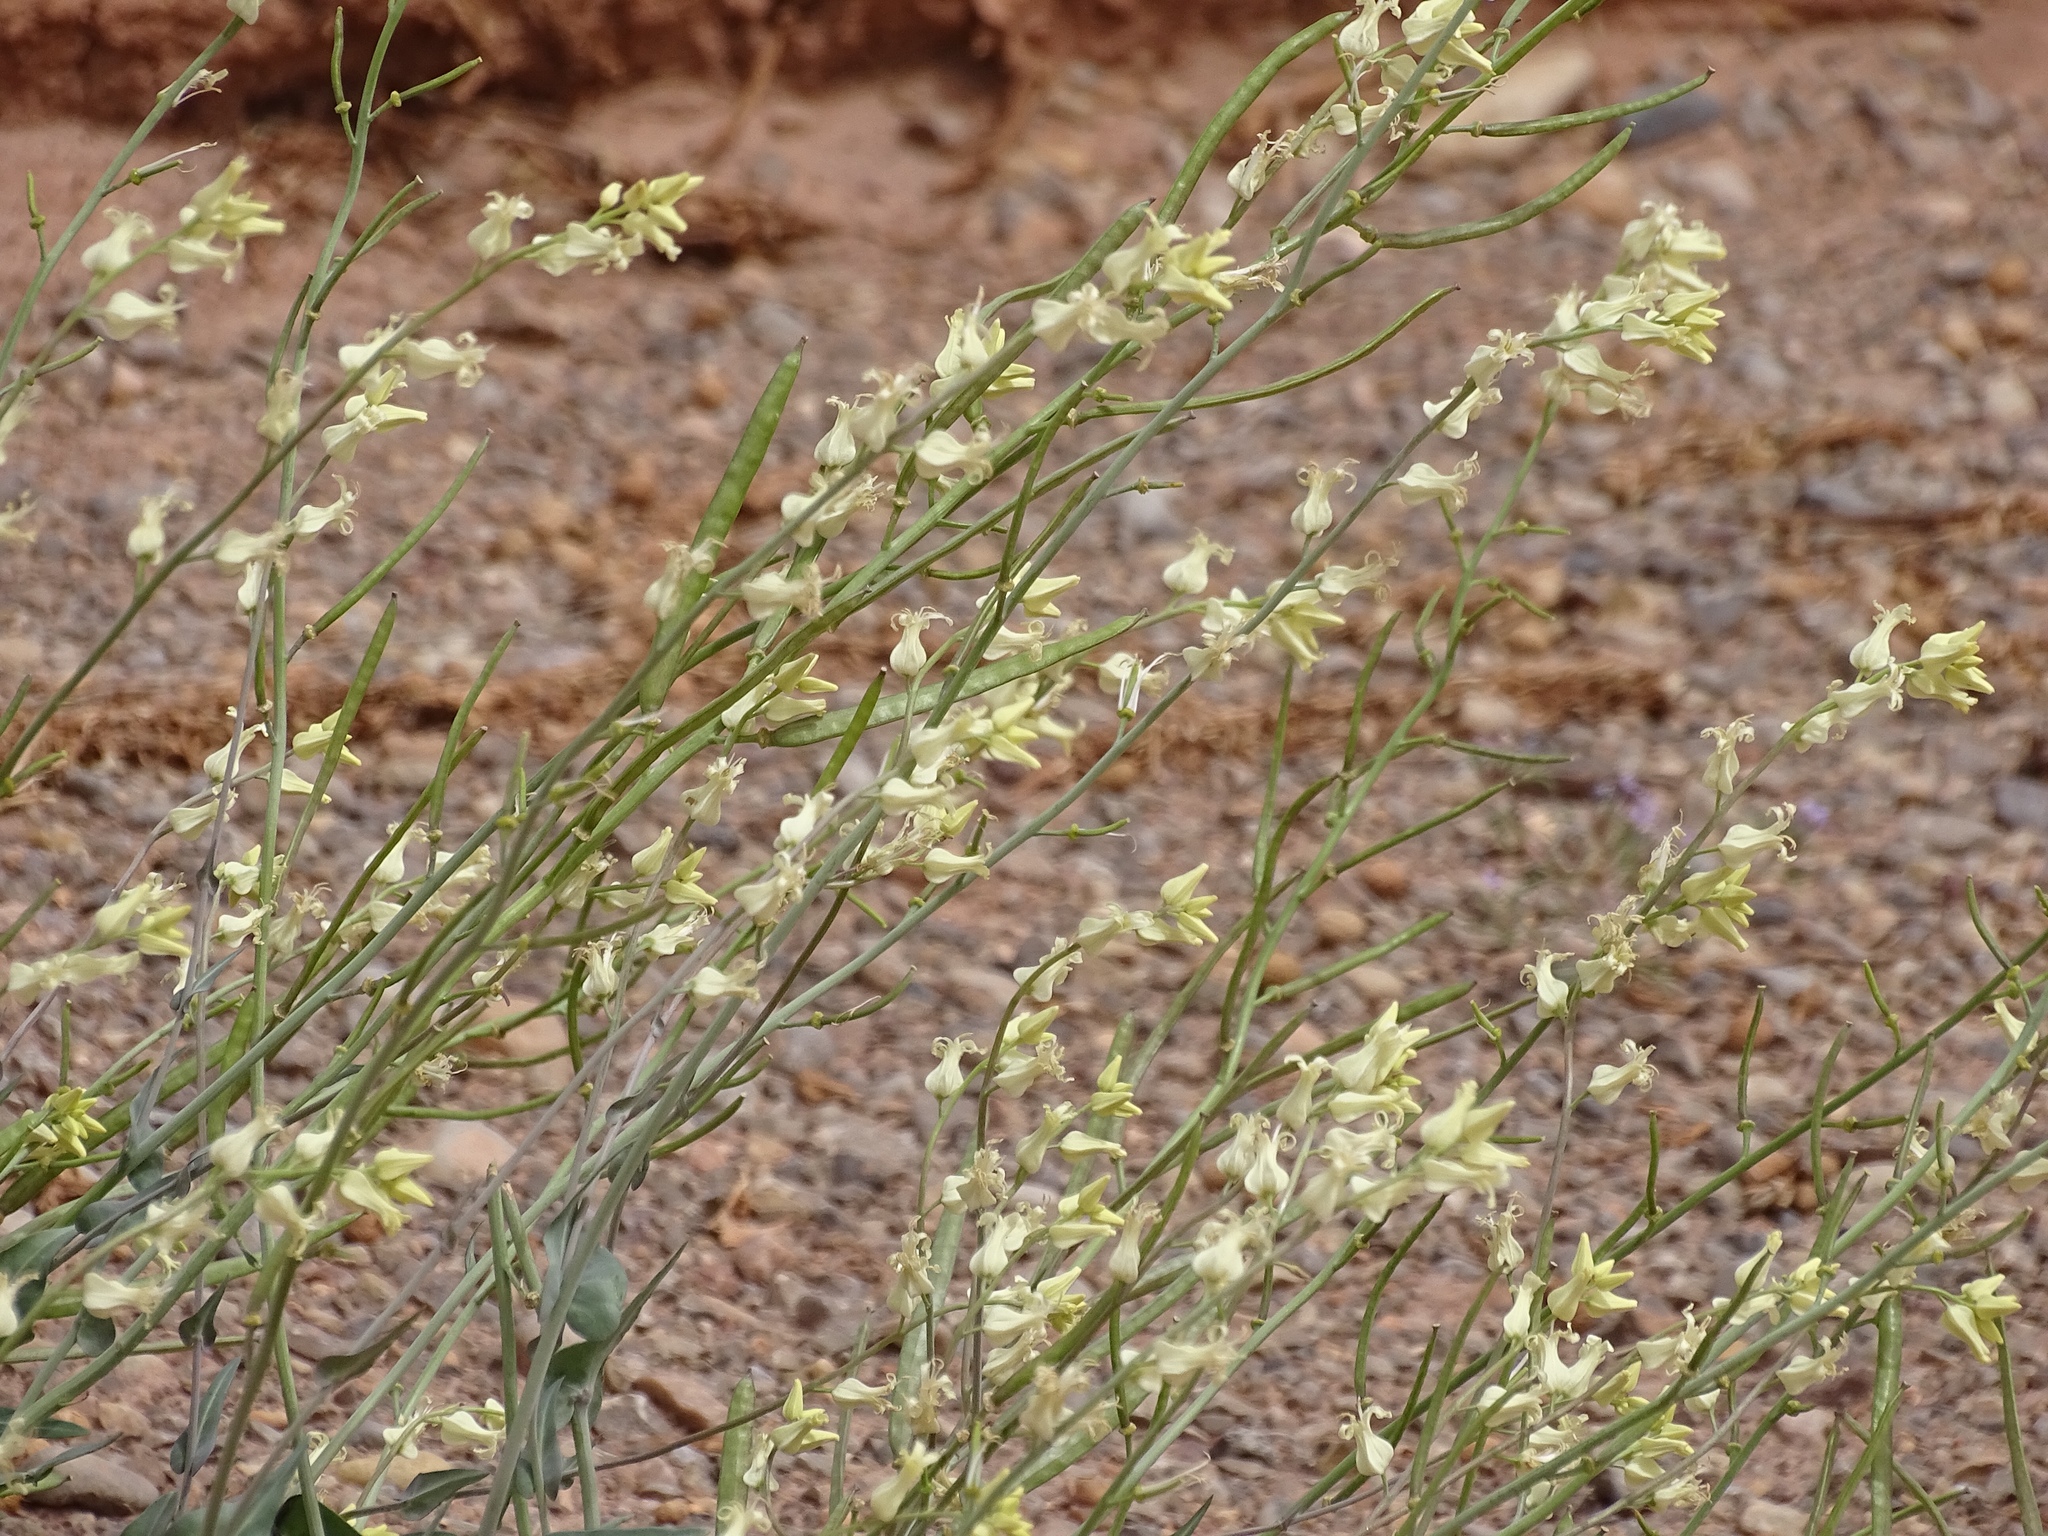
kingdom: Plantae
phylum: Tracheophyta
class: Magnoliopsida
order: Brassicales
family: Brassicaceae
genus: Streptanthus
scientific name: Streptanthus carinatus
